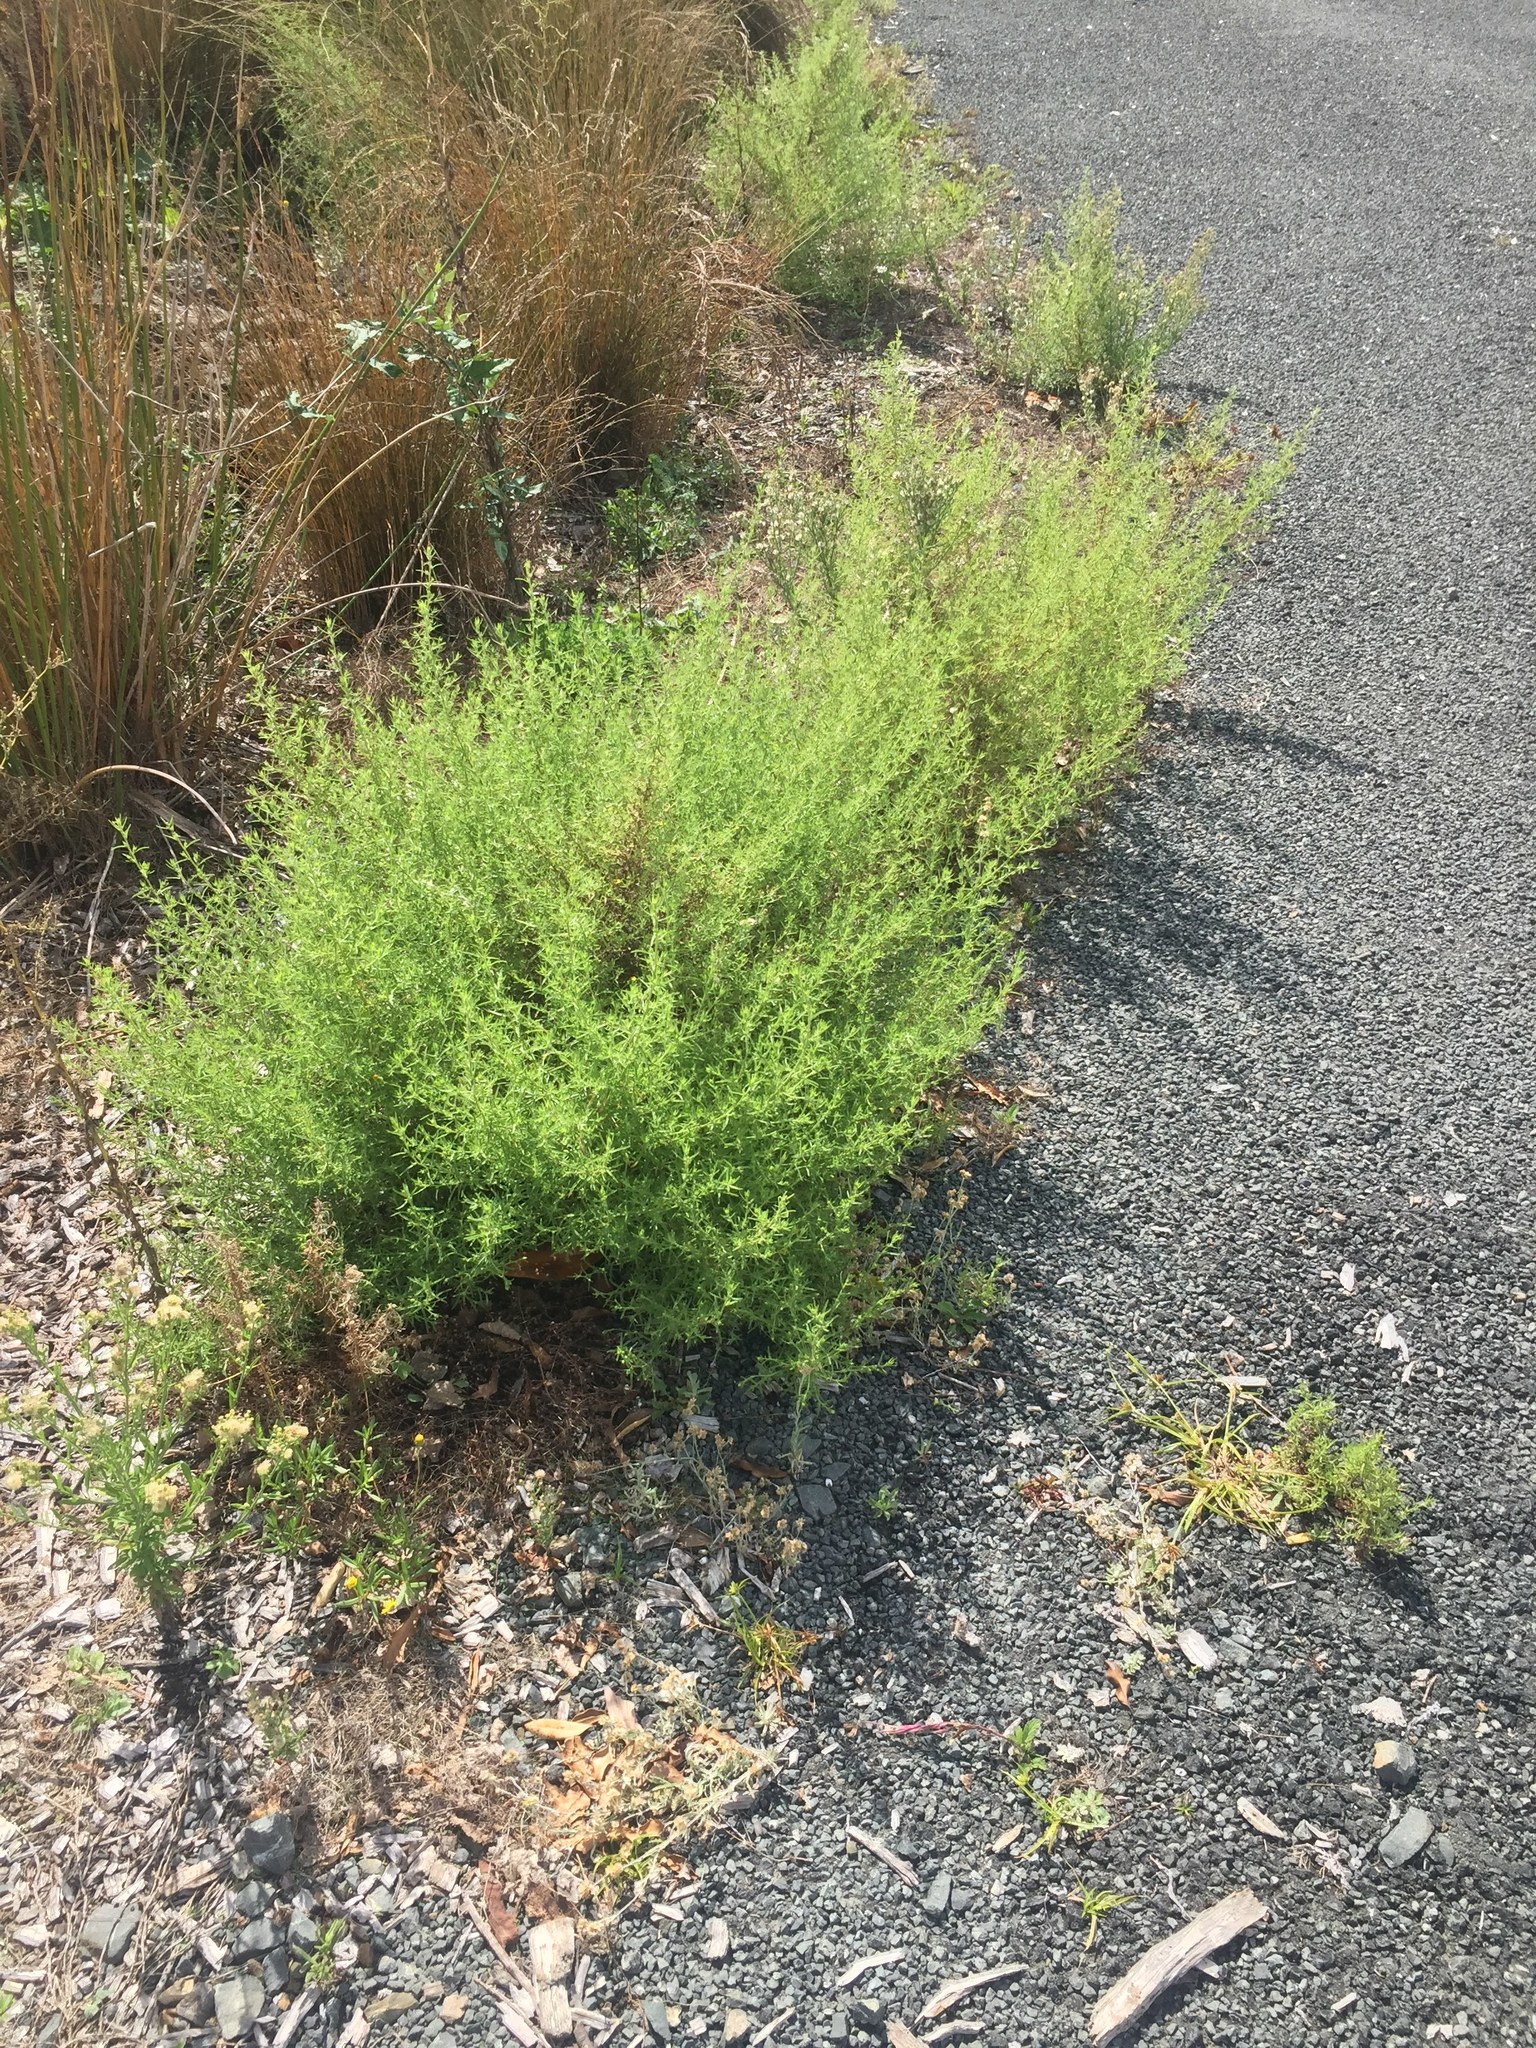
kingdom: Plantae
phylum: Tracheophyta
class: Magnoliopsida
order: Asterales
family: Asteraceae
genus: Dittrichia
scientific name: Dittrichia graveolens
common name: Stinking fleabane
